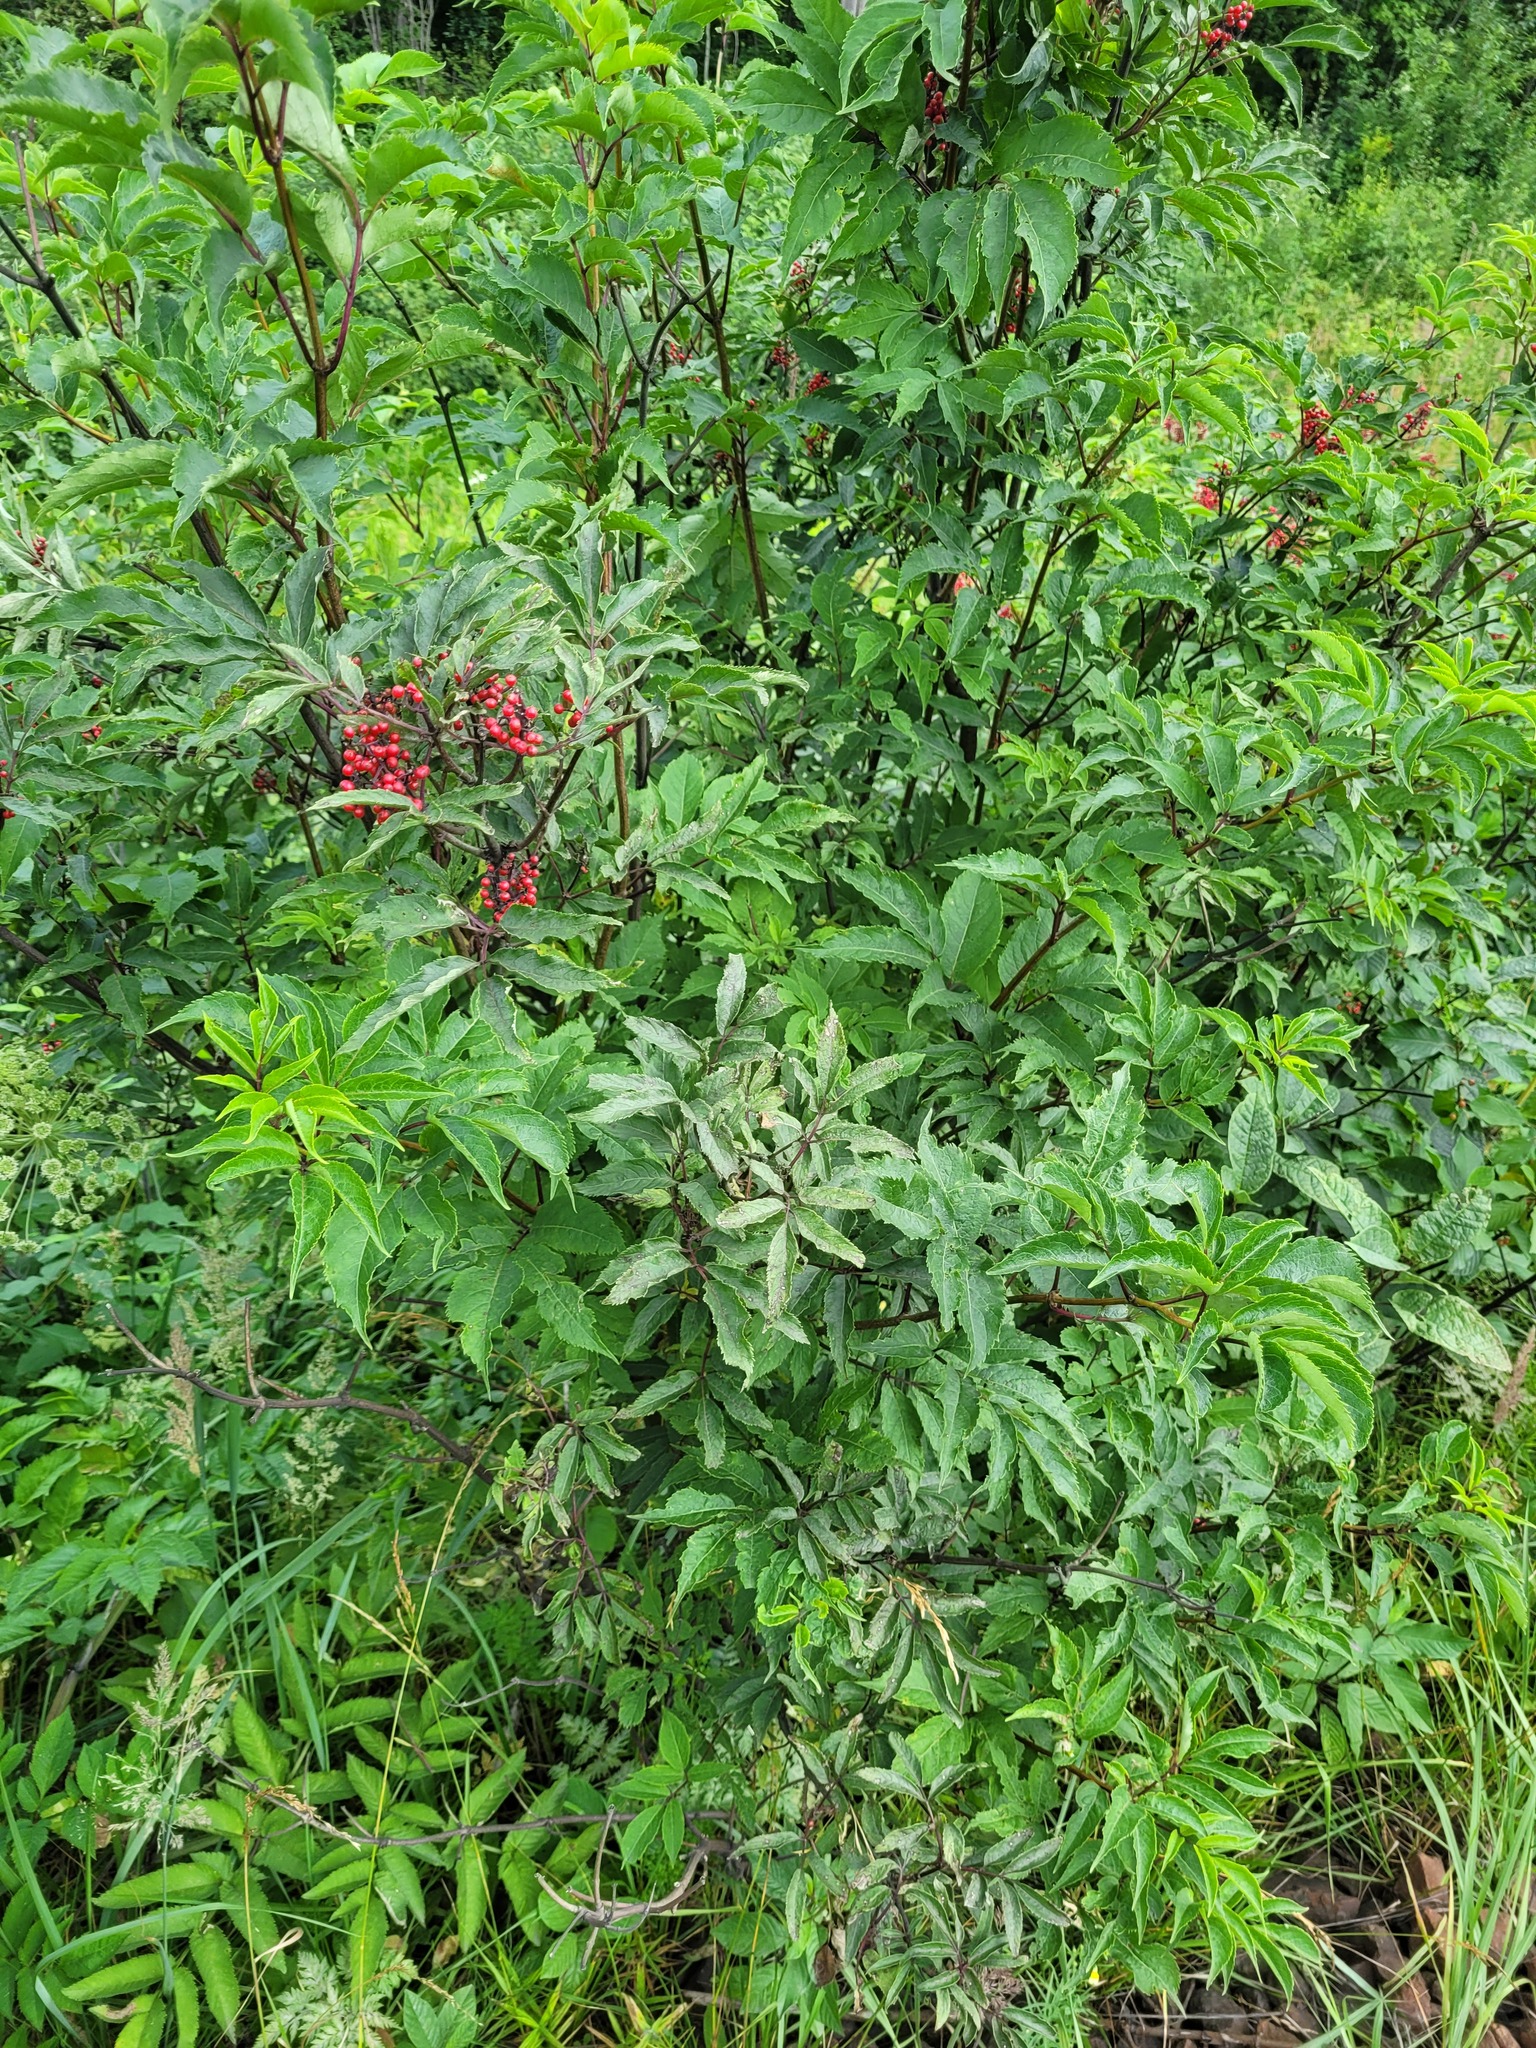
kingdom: Plantae
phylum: Tracheophyta
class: Magnoliopsida
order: Dipsacales
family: Viburnaceae
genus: Sambucus
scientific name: Sambucus racemosa
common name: Red-berried elder
